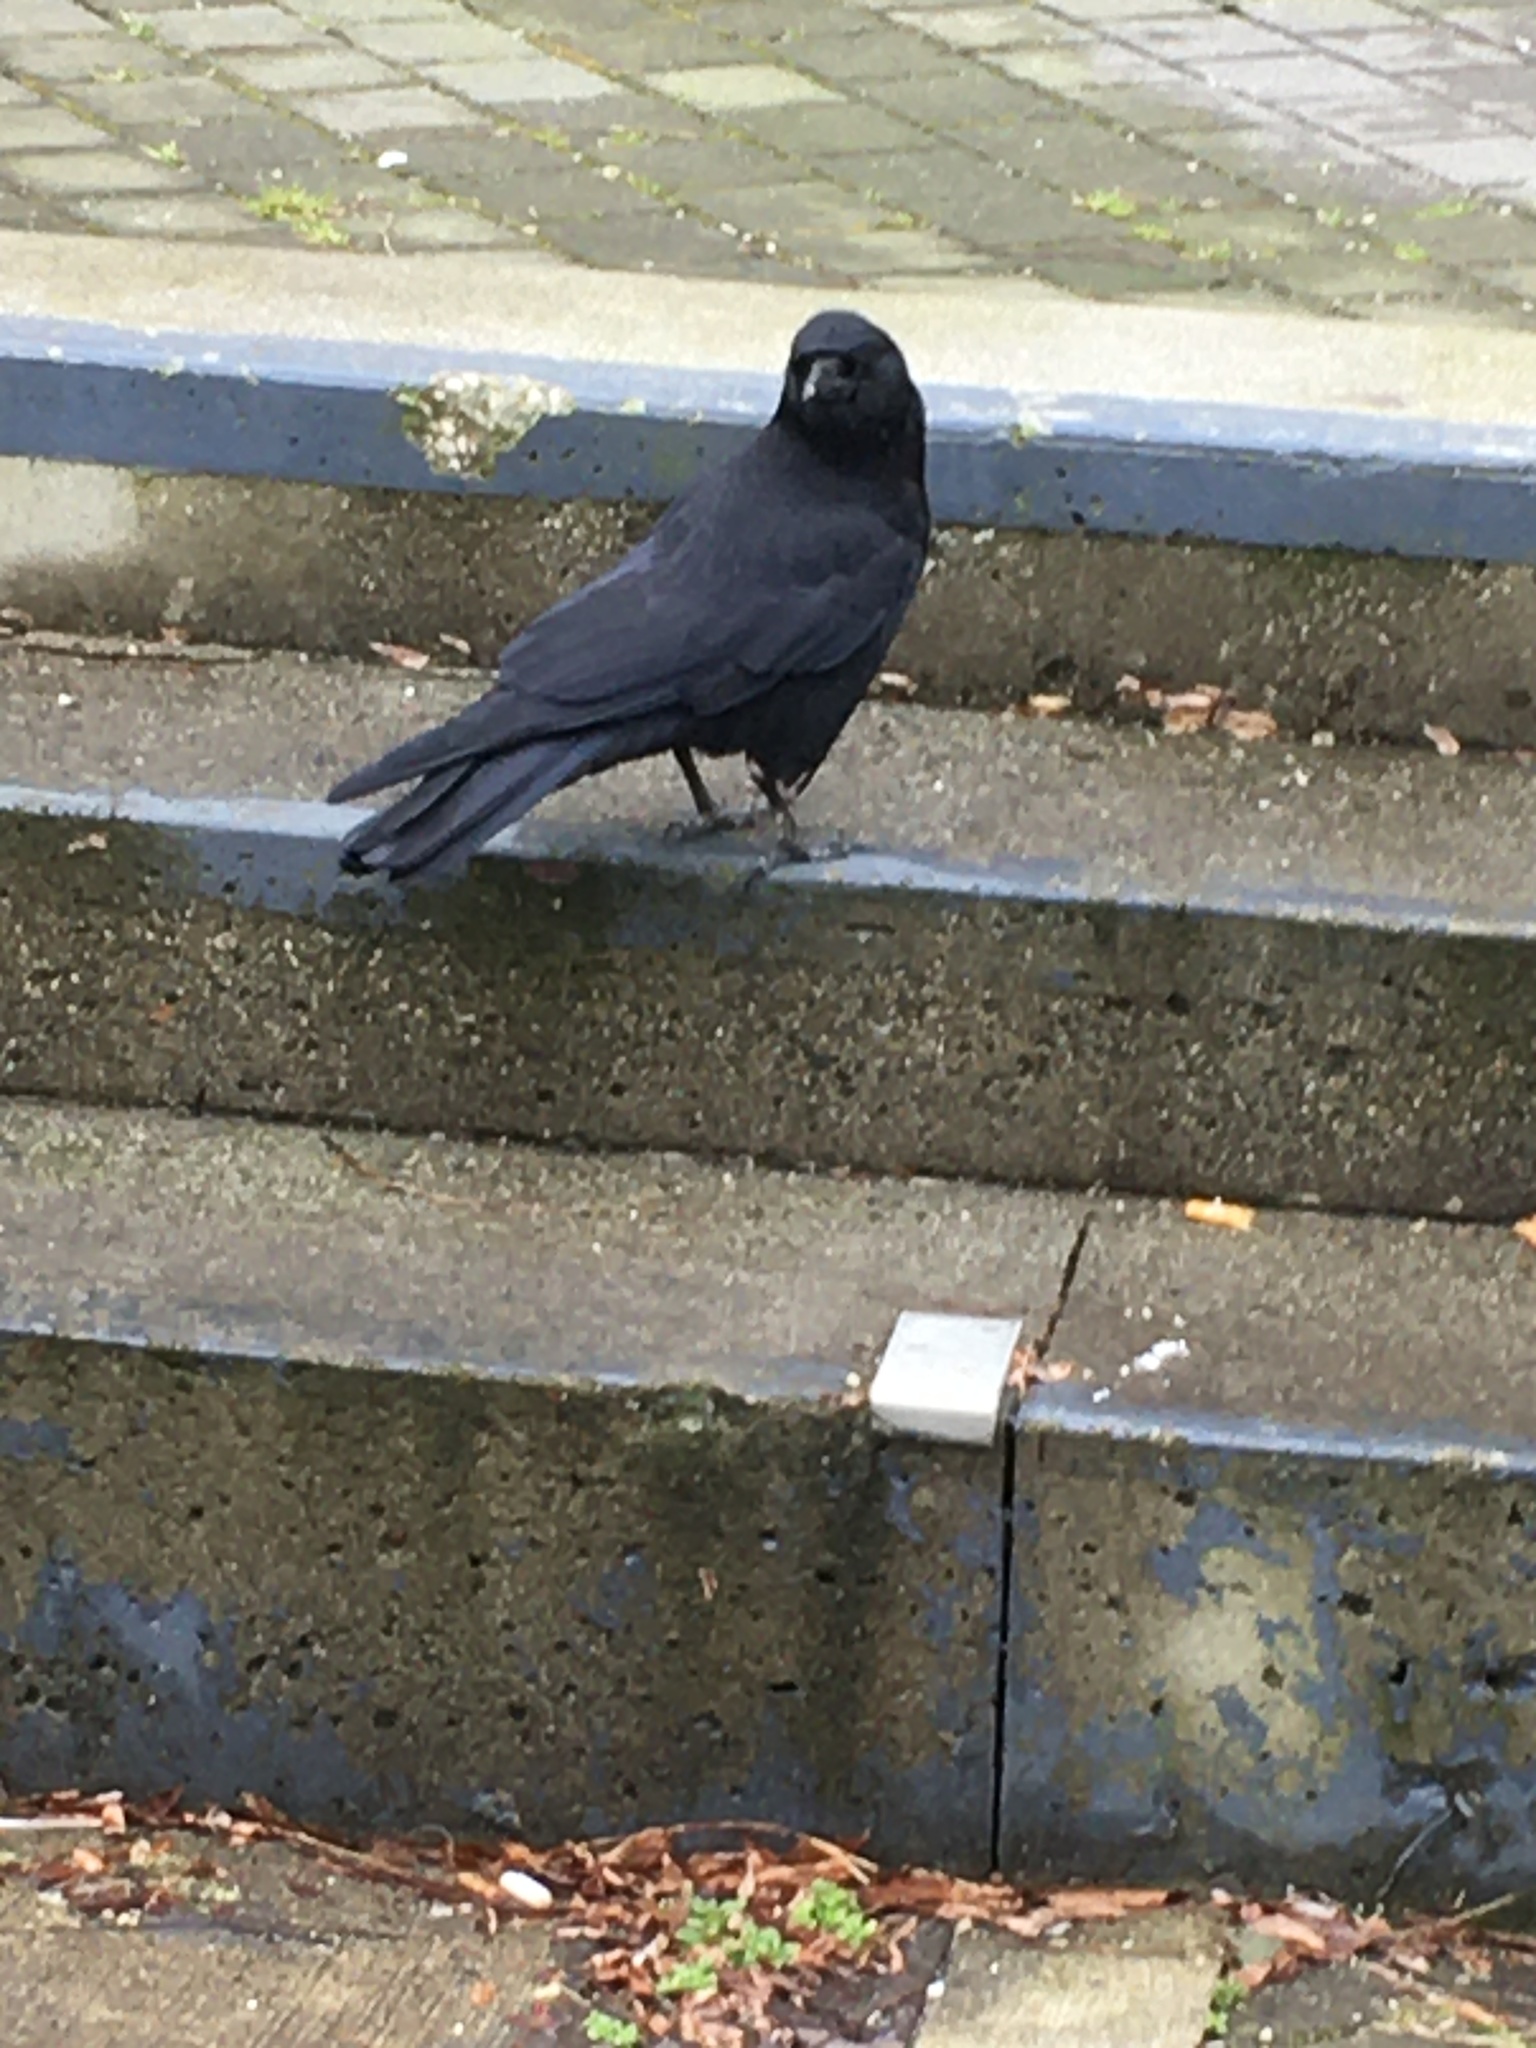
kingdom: Animalia
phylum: Chordata
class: Aves
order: Passeriformes
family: Corvidae
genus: Corvus
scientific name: Corvus brachyrhynchos
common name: American crow
